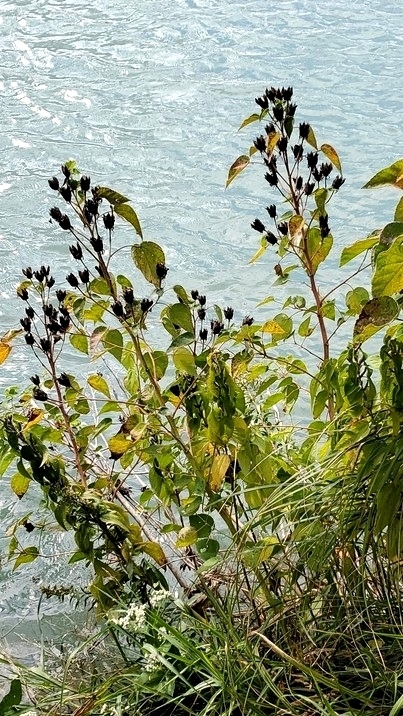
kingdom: Plantae
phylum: Tracheophyta
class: Magnoliopsida
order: Malvales
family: Malvaceae
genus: Hibiscus
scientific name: Hibiscus moscheutos
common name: Common rose-mallow
